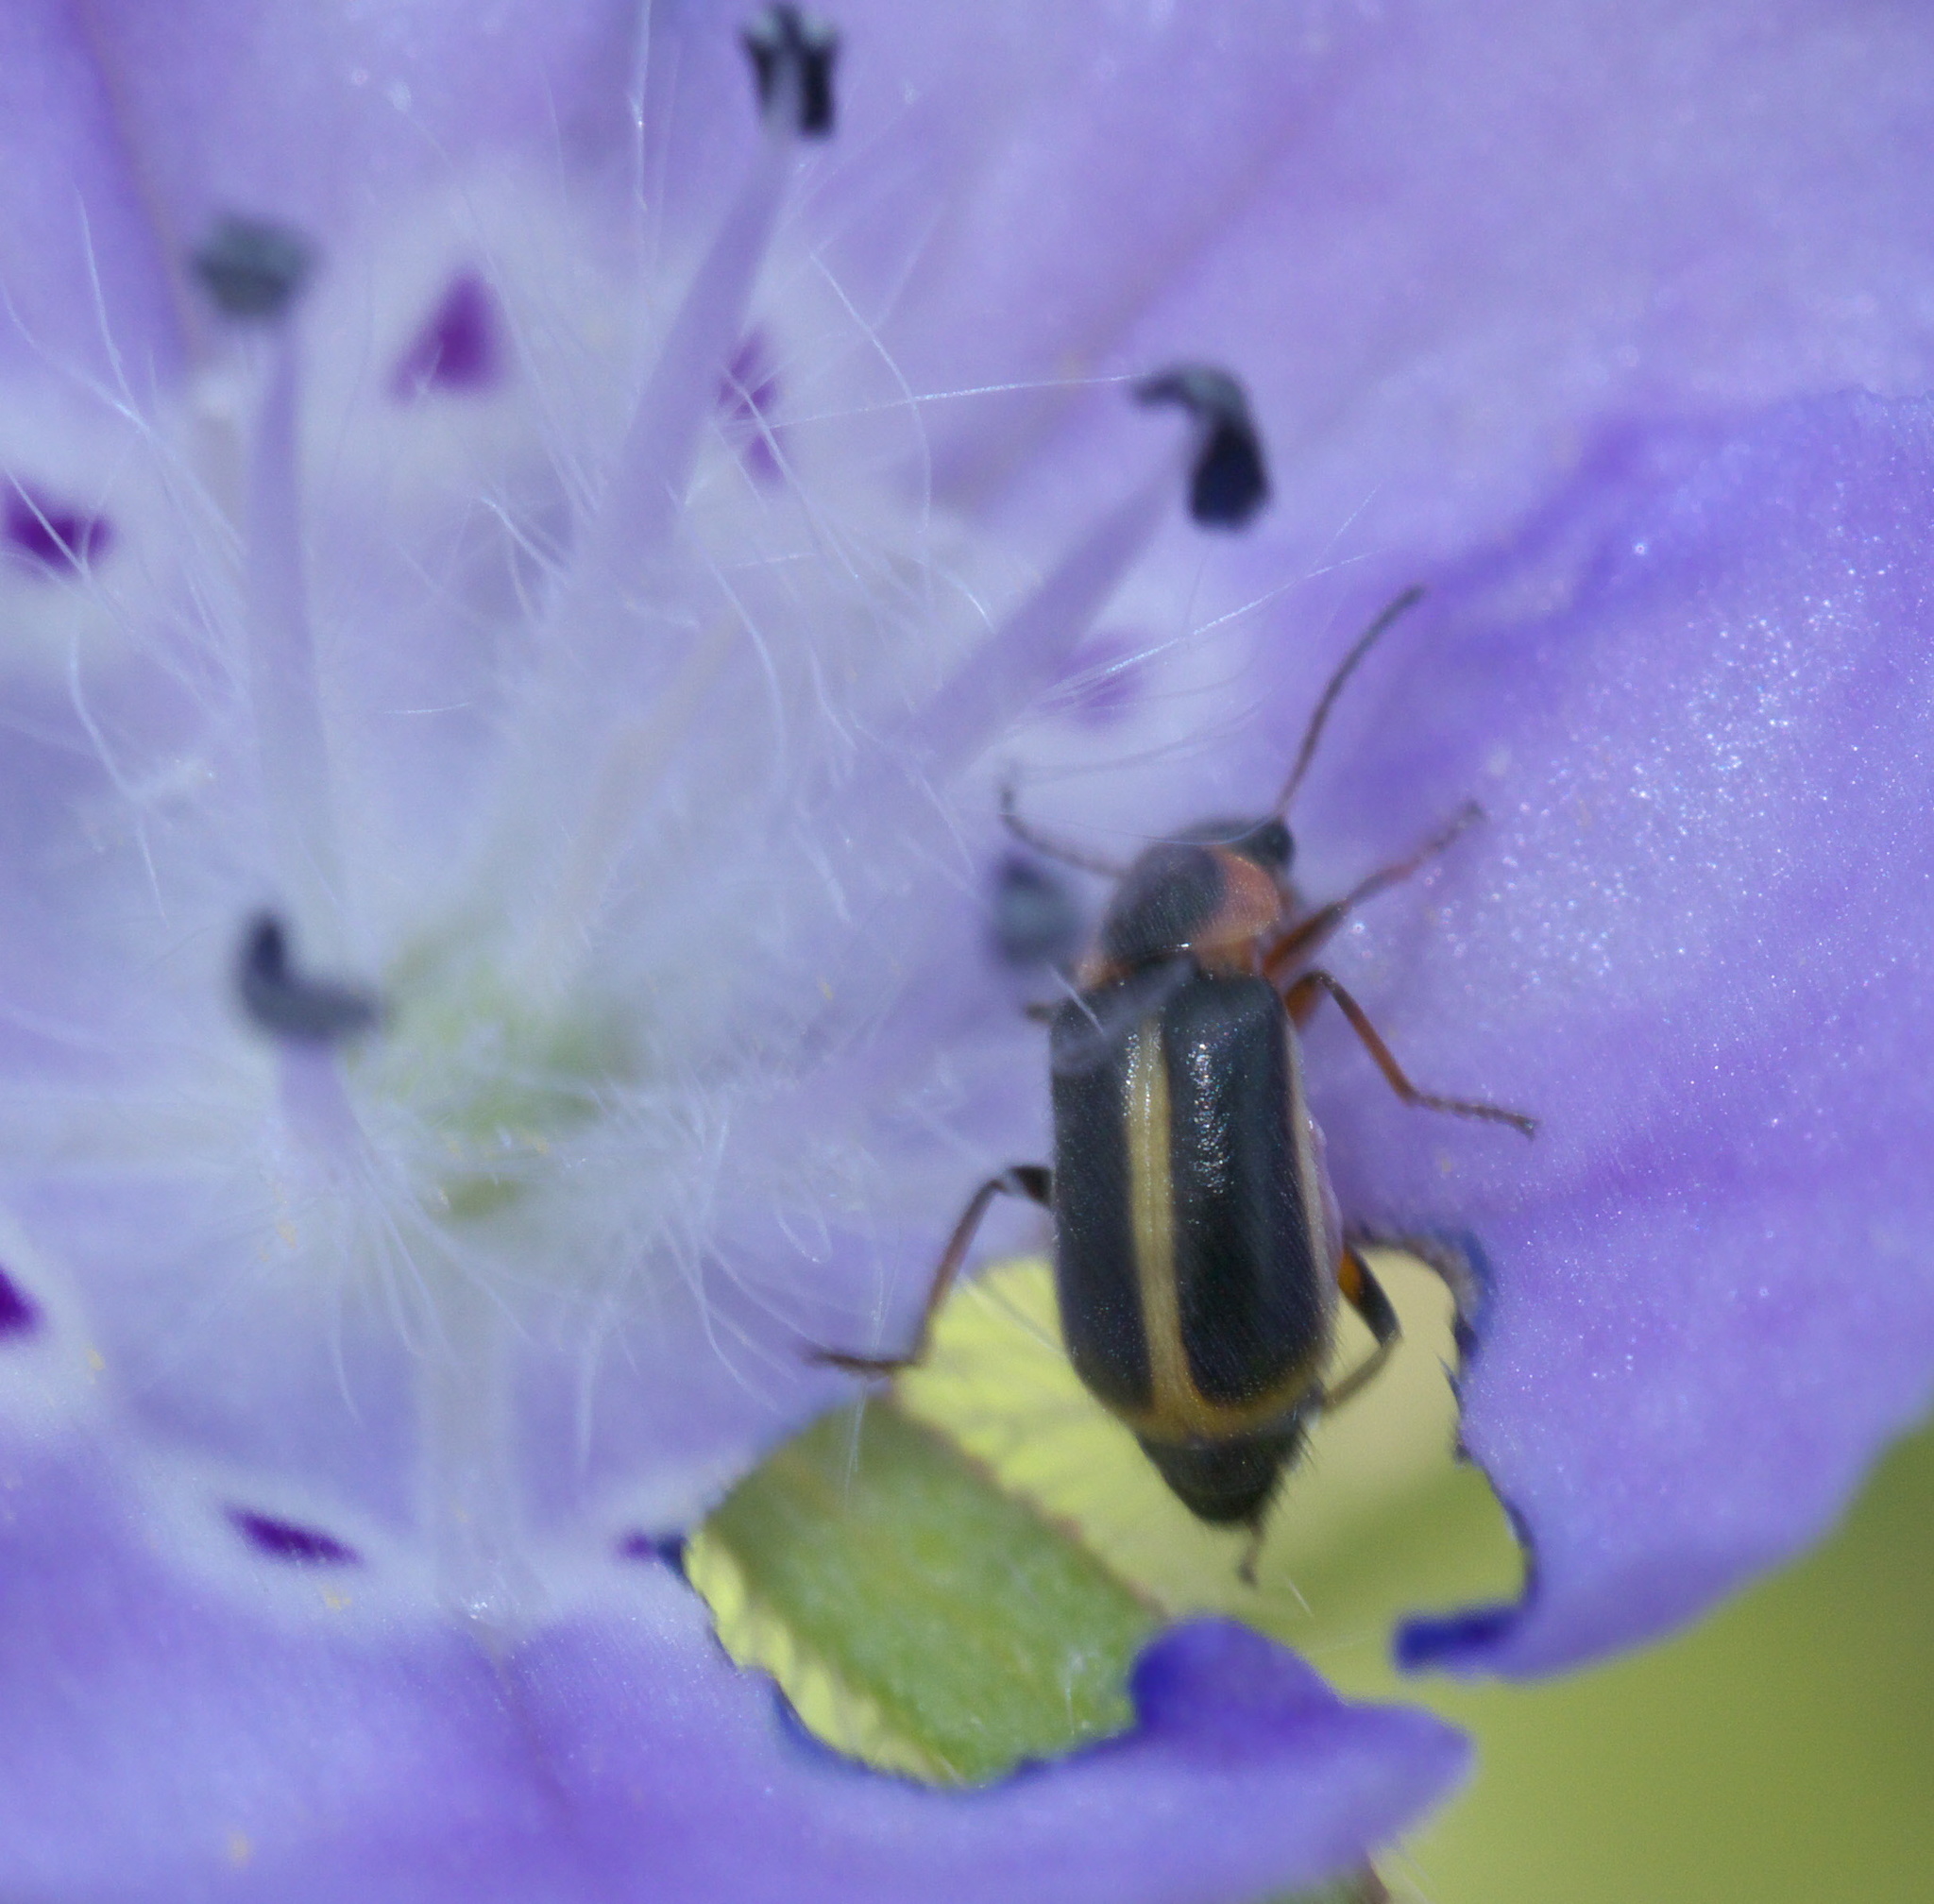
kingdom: Animalia
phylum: Arthropoda
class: Insecta
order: Coleoptera
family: Malachiidae
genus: Attalus
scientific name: Attalus
